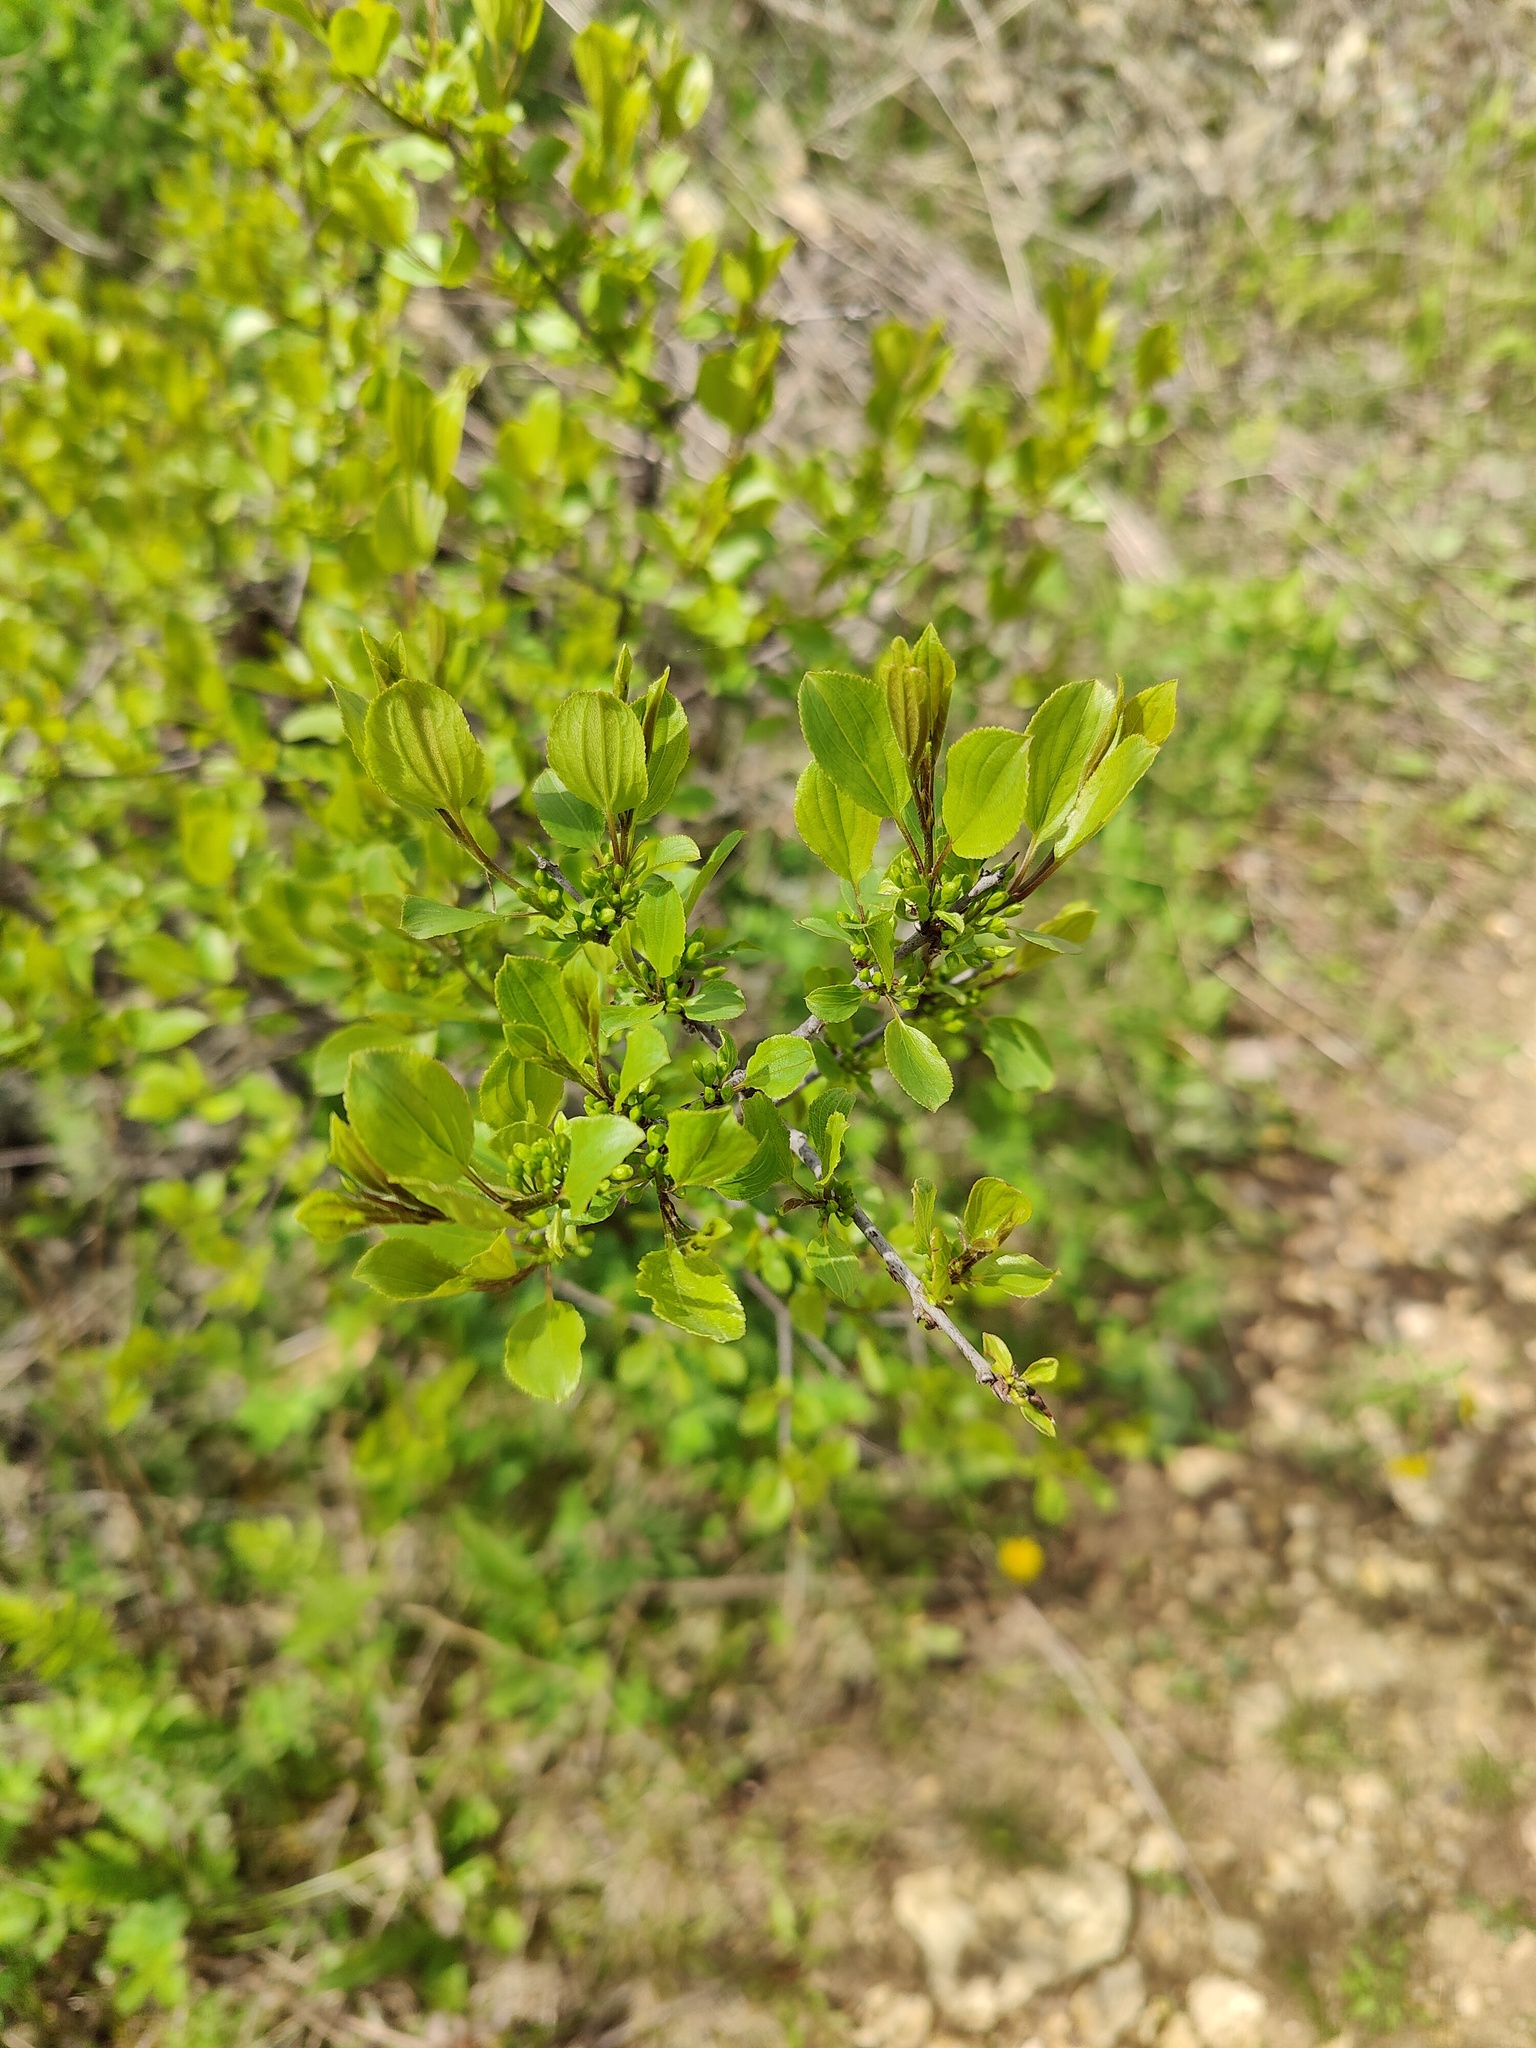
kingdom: Plantae
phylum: Tracheophyta
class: Magnoliopsida
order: Rosales
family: Rhamnaceae
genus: Rhamnus
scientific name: Rhamnus cathartica
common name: Common buckthorn
